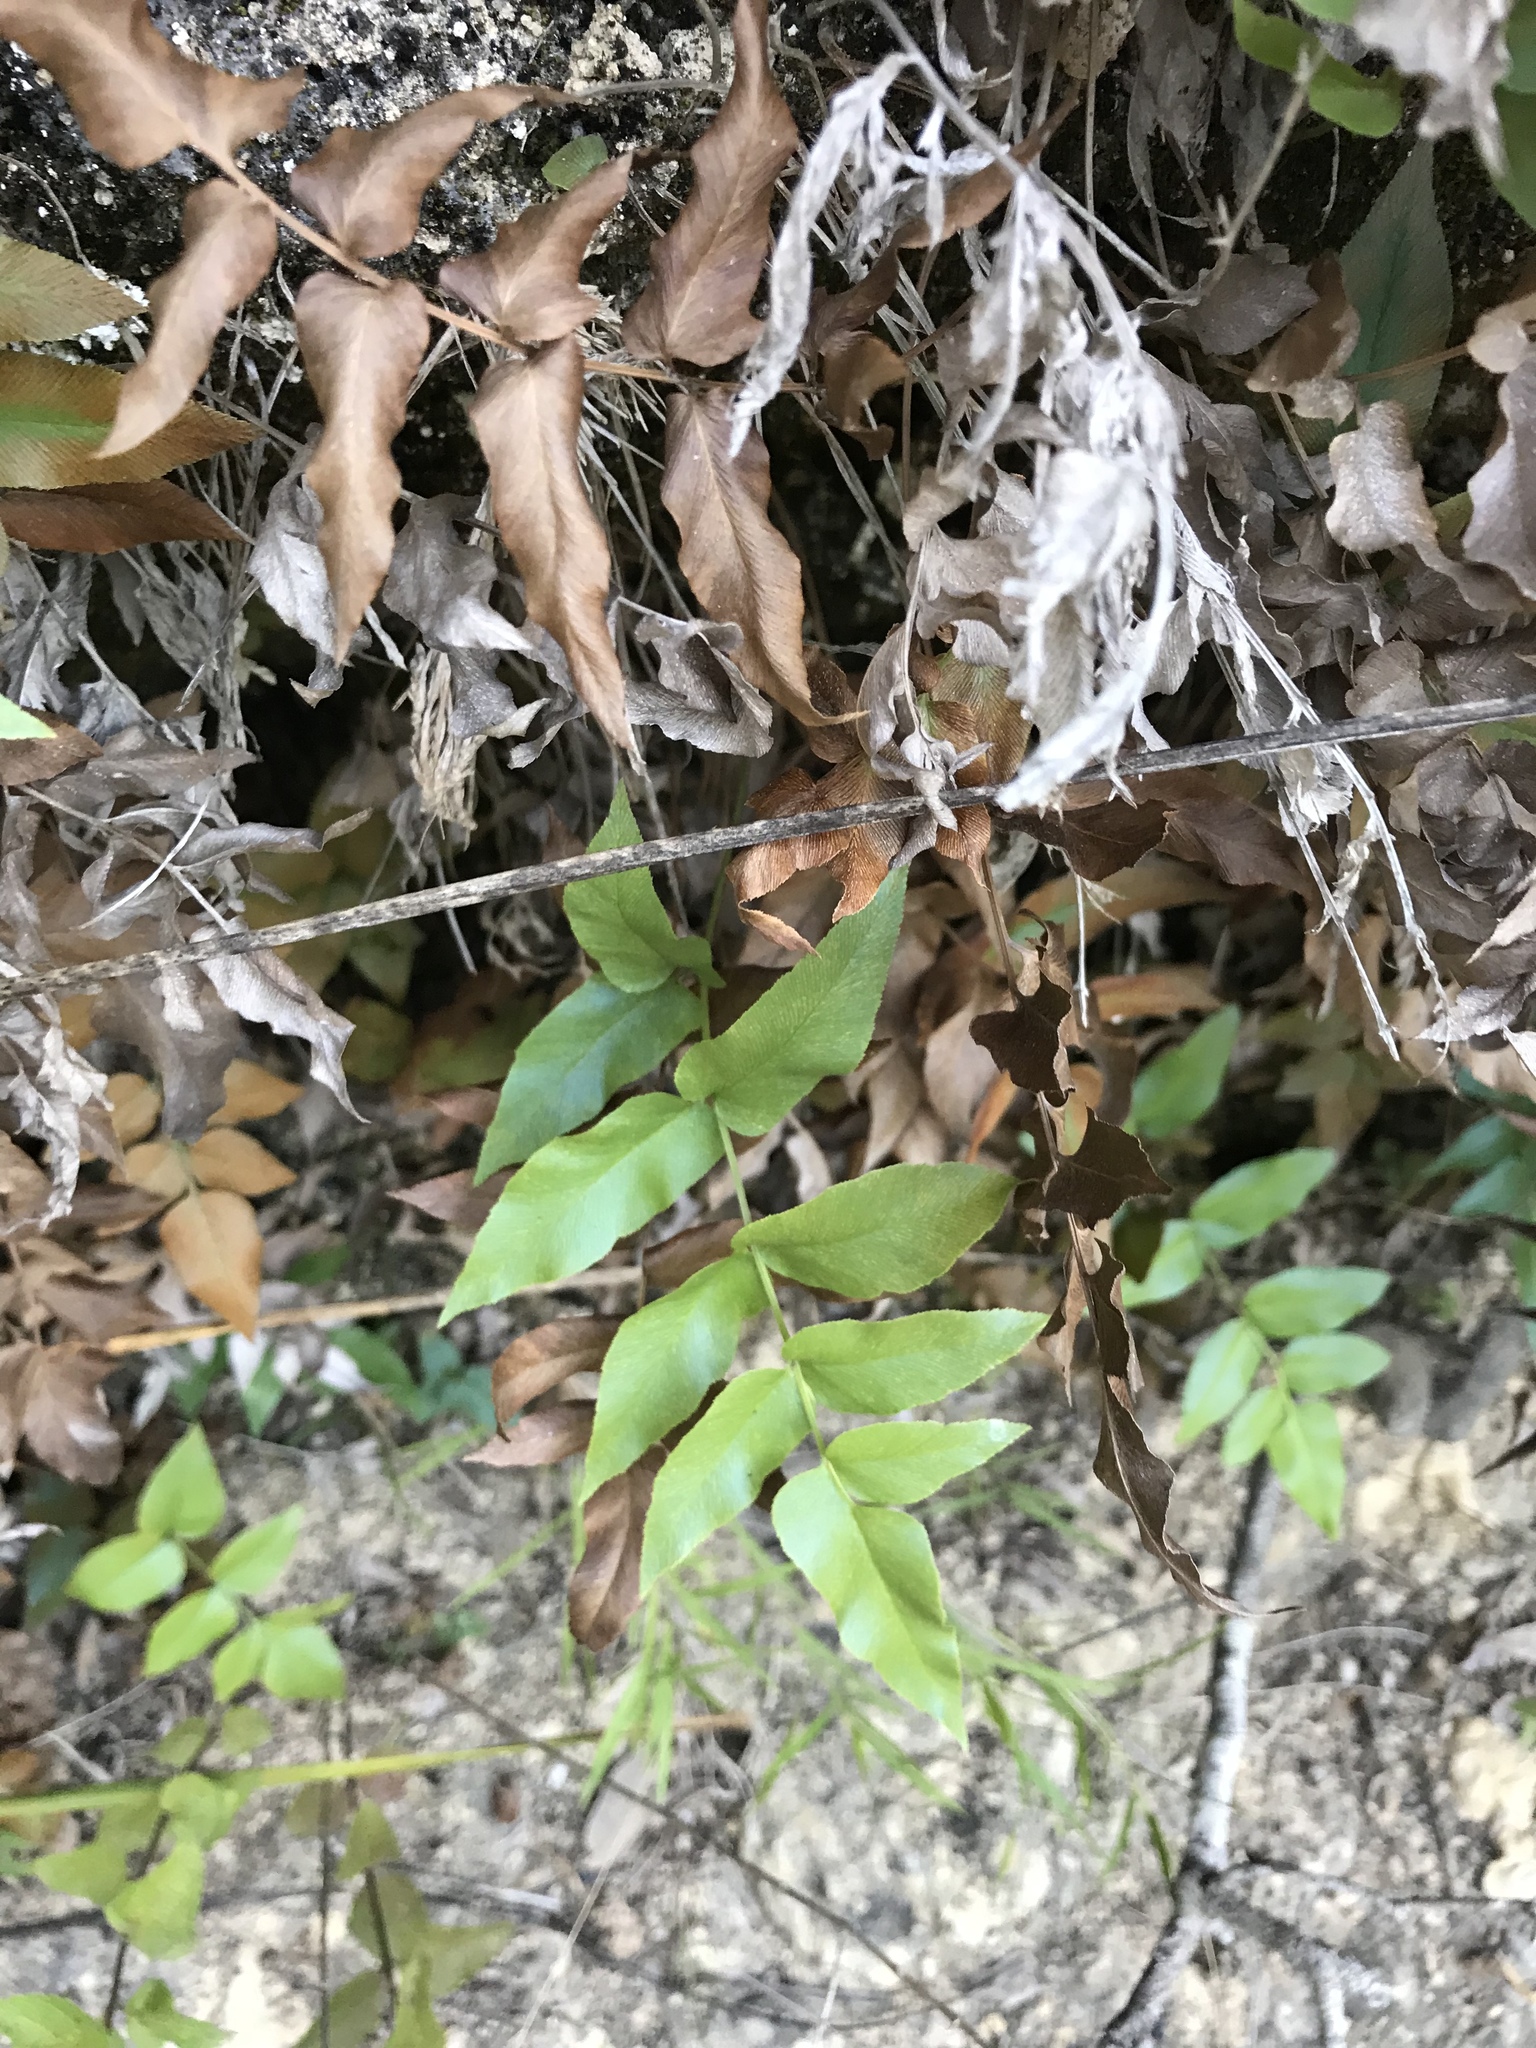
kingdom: Plantae
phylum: Tracheophyta
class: Polypodiopsida
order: Schizaeales
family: Anemiaceae
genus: Anemia
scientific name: Anemia mexicana
